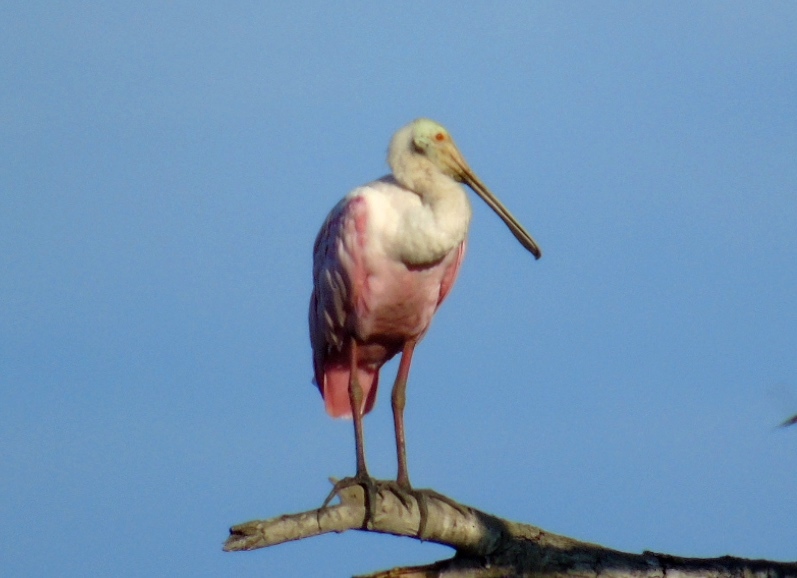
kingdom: Animalia
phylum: Chordata
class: Aves
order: Pelecaniformes
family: Threskiornithidae
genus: Platalea
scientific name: Platalea ajaja
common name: Roseate spoonbill
